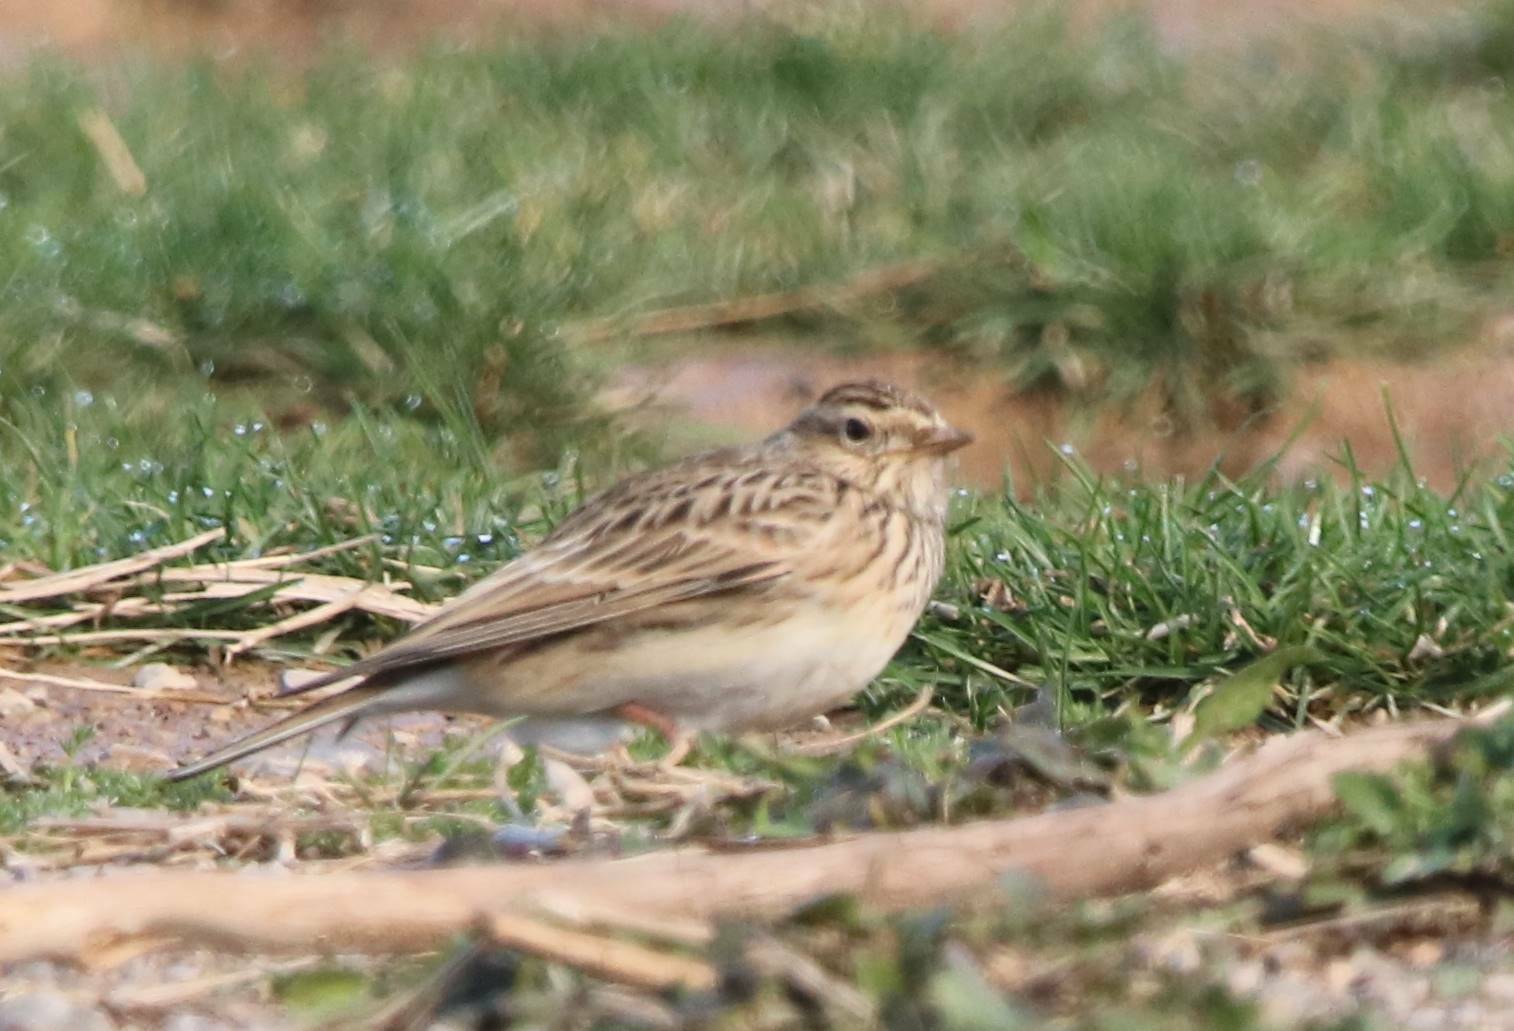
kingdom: Animalia
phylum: Chordata
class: Aves
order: Passeriformes
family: Alaudidae
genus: Alauda
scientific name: Alauda arvensis
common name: Eurasian skylark
